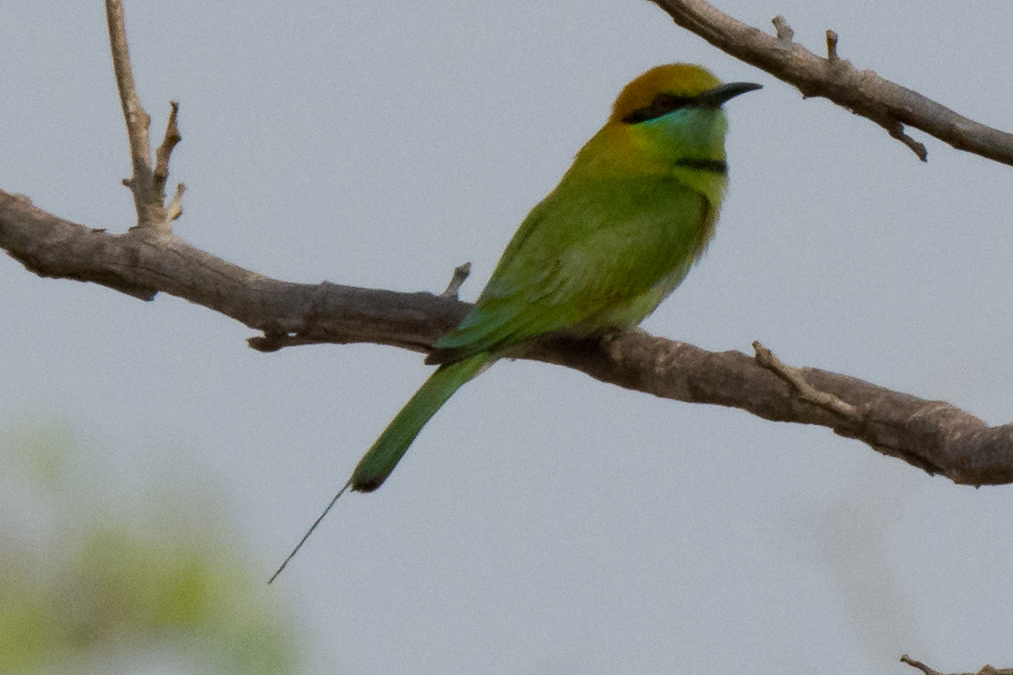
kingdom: Animalia
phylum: Chordata
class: Aves
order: Coraciiformes
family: Meropidae
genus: Merops
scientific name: Merops orientalis
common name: Green bee-eater
